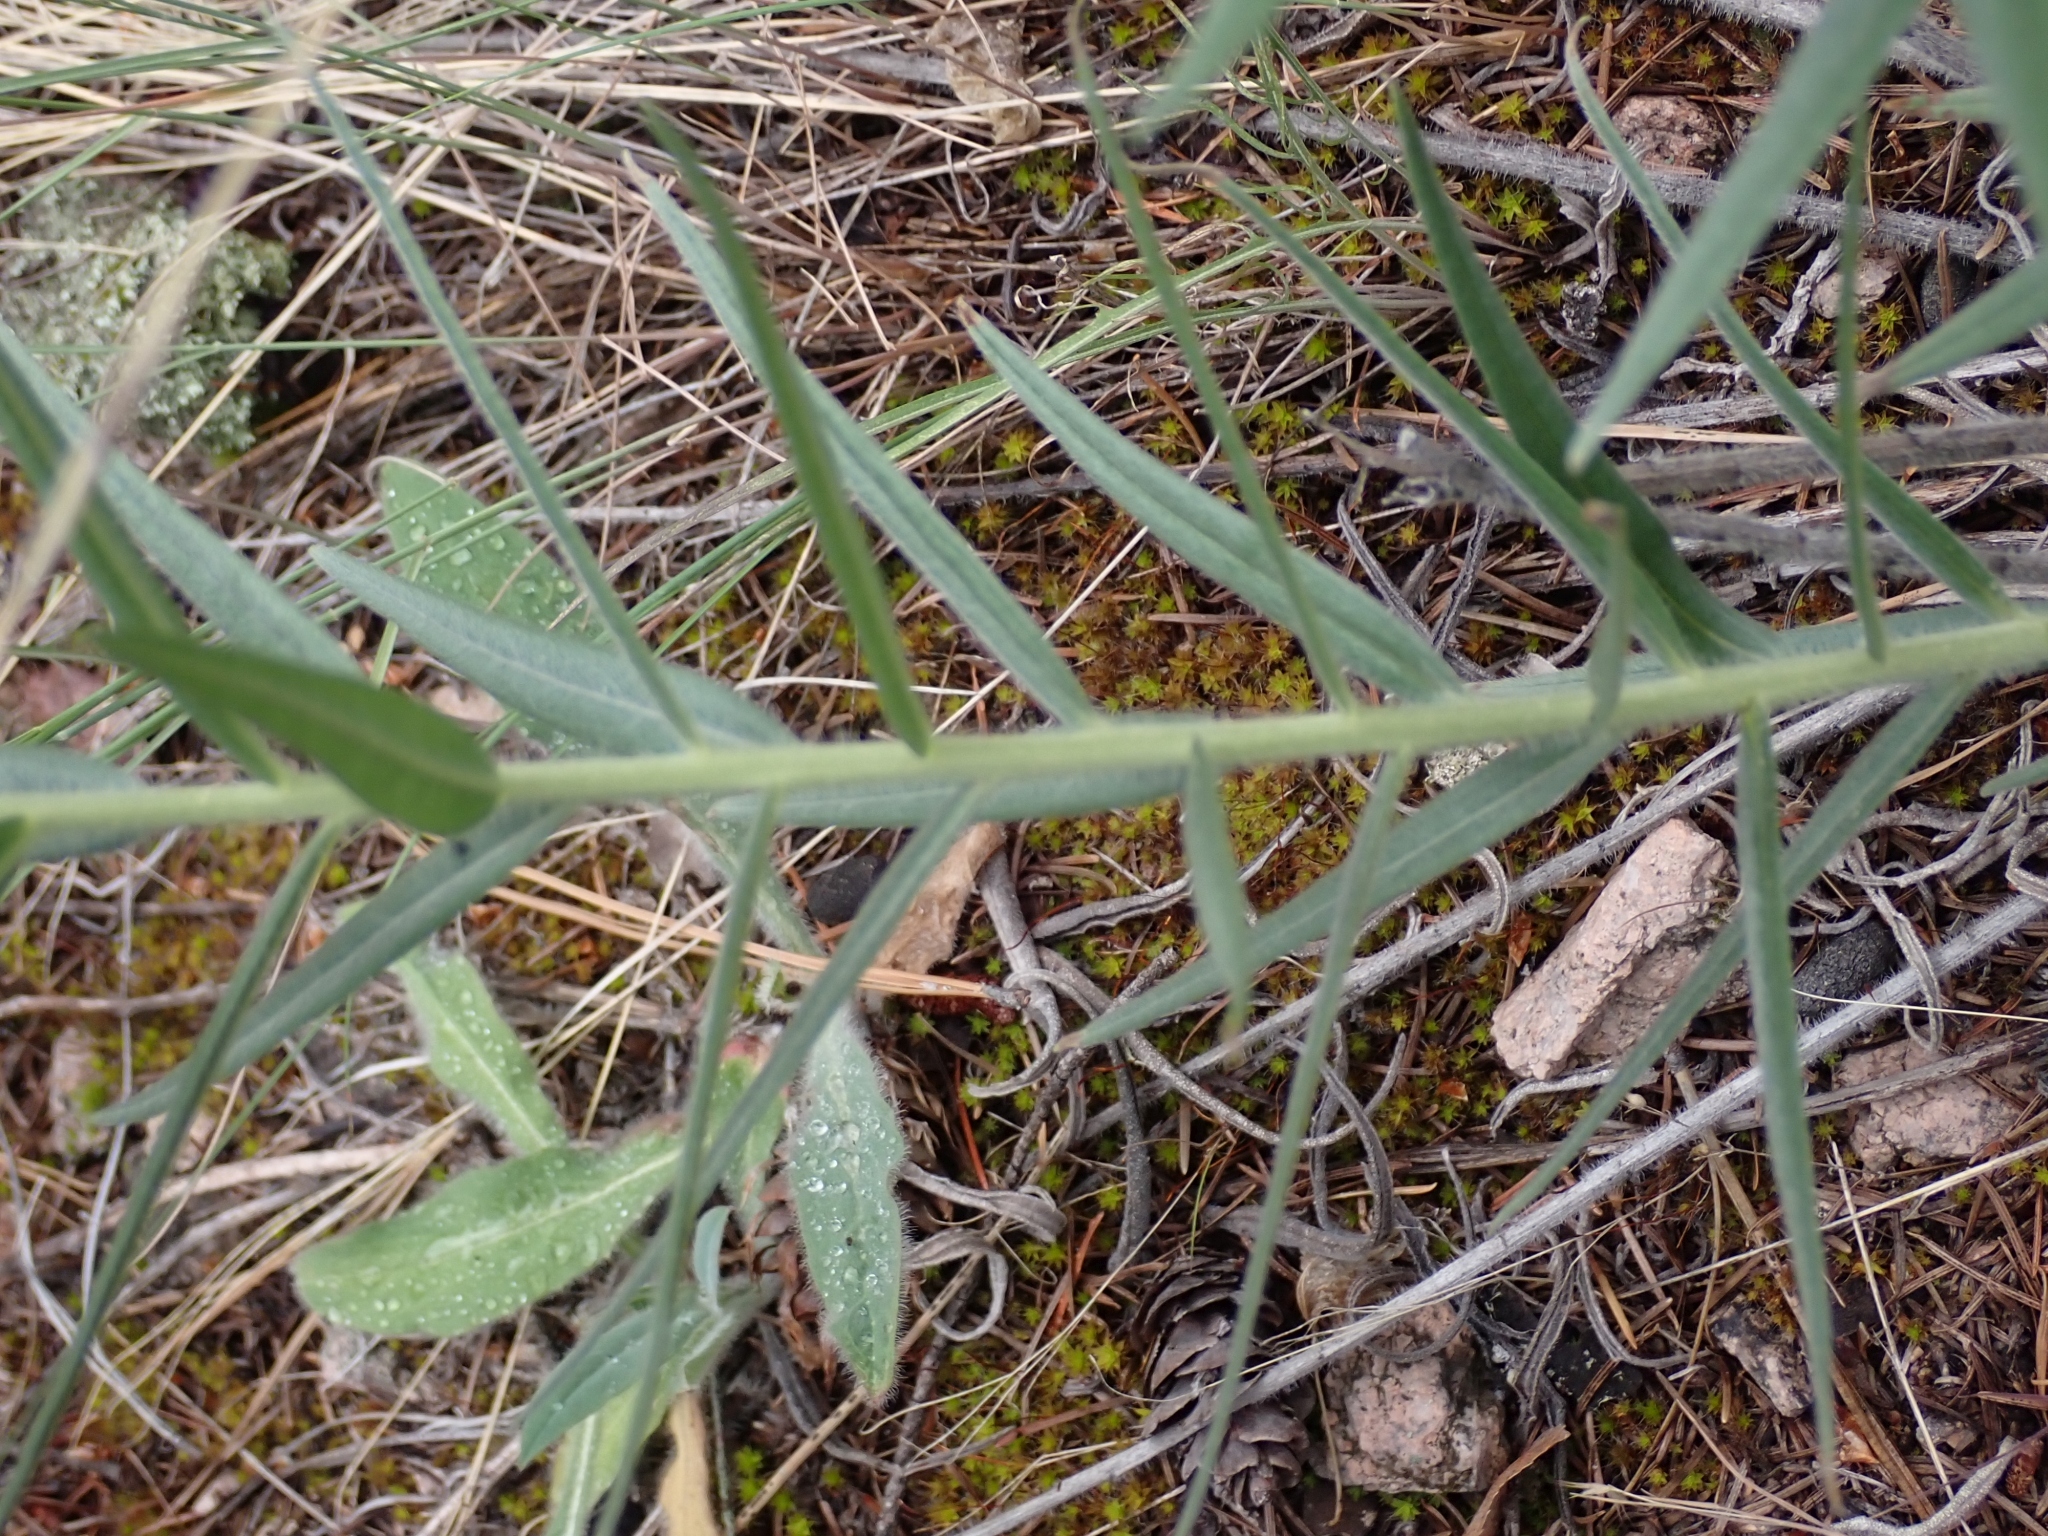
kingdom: Plantae
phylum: Tracheophyta
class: Magnoliopsida
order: Boraginales
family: Boraginaceae
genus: Lithospermum
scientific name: Lithospermum ruderale
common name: Western gromwell
